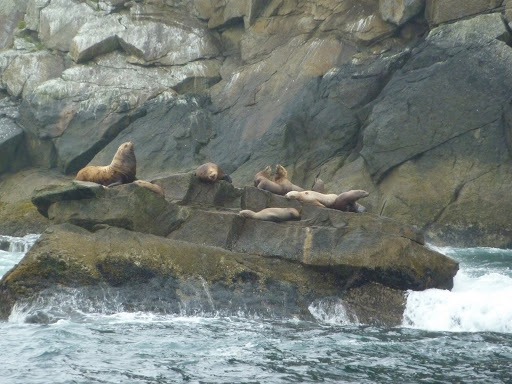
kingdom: Animalia
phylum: Chordata
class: Mammalia
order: Carnivora
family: Otariidae
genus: Eumetopias
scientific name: Eumetopias jubatus
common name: Steller sea lion
